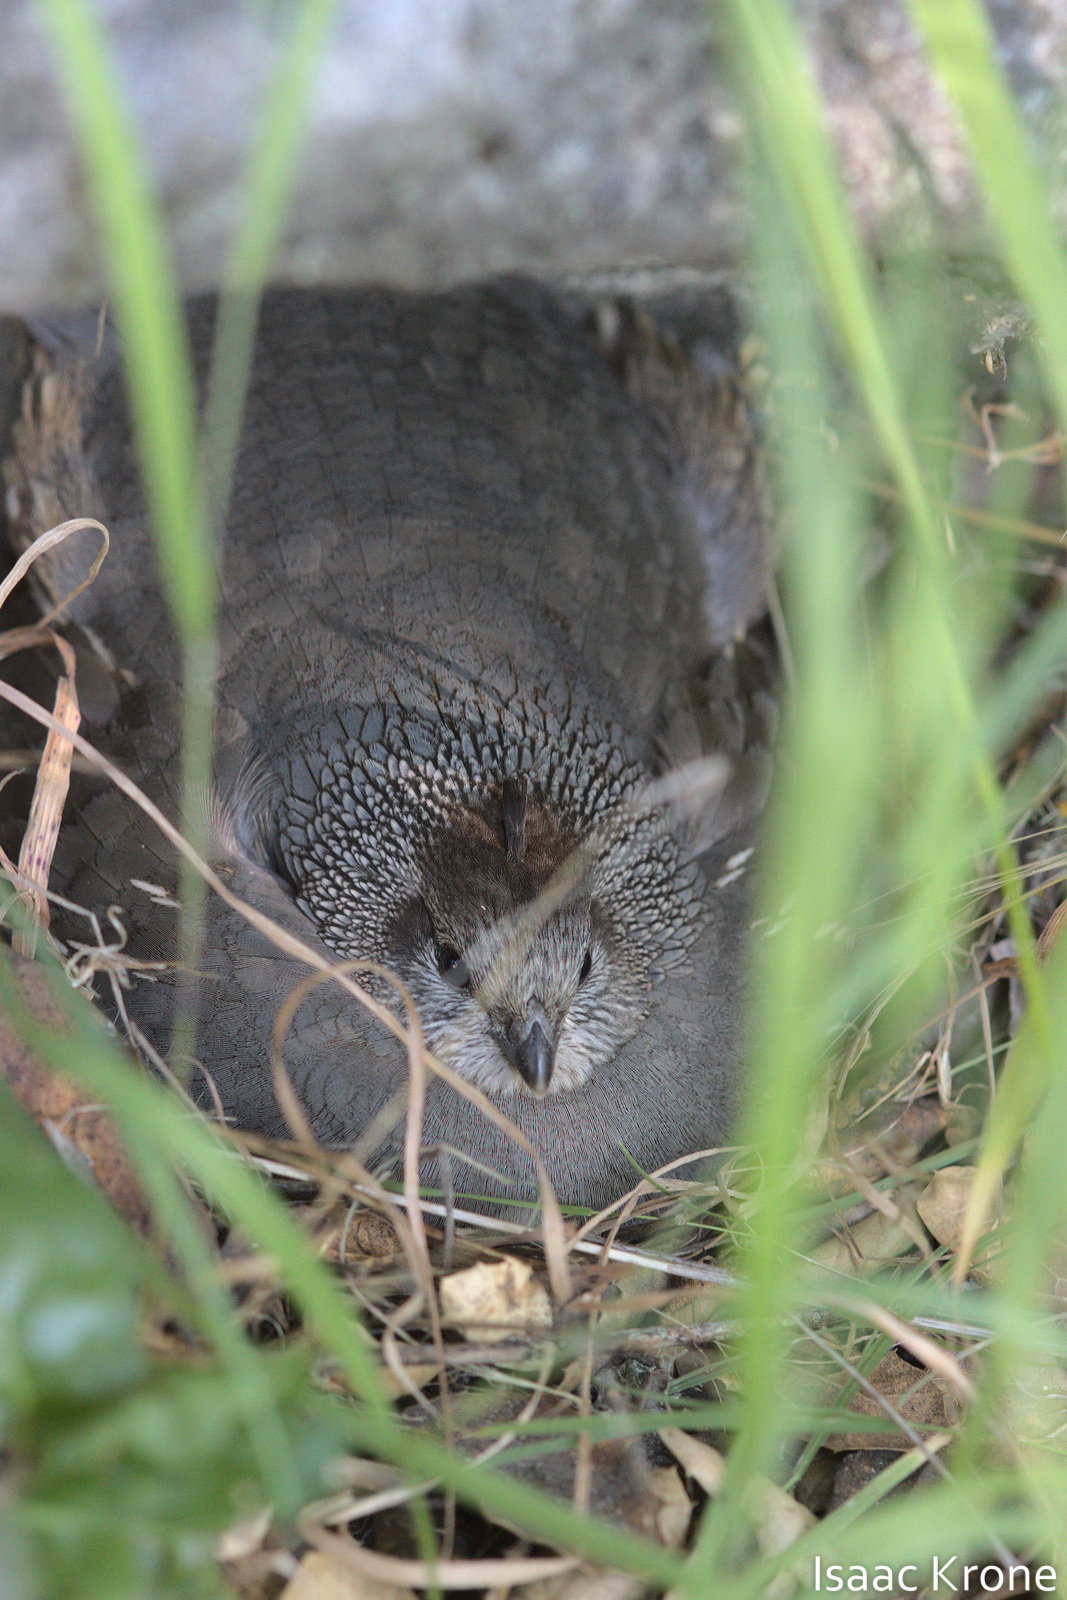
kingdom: Animalia
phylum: Chordata
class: Aves
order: Galliformes
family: Odontophoridae
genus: Callipepla
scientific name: Callipepla californica
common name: California quail
